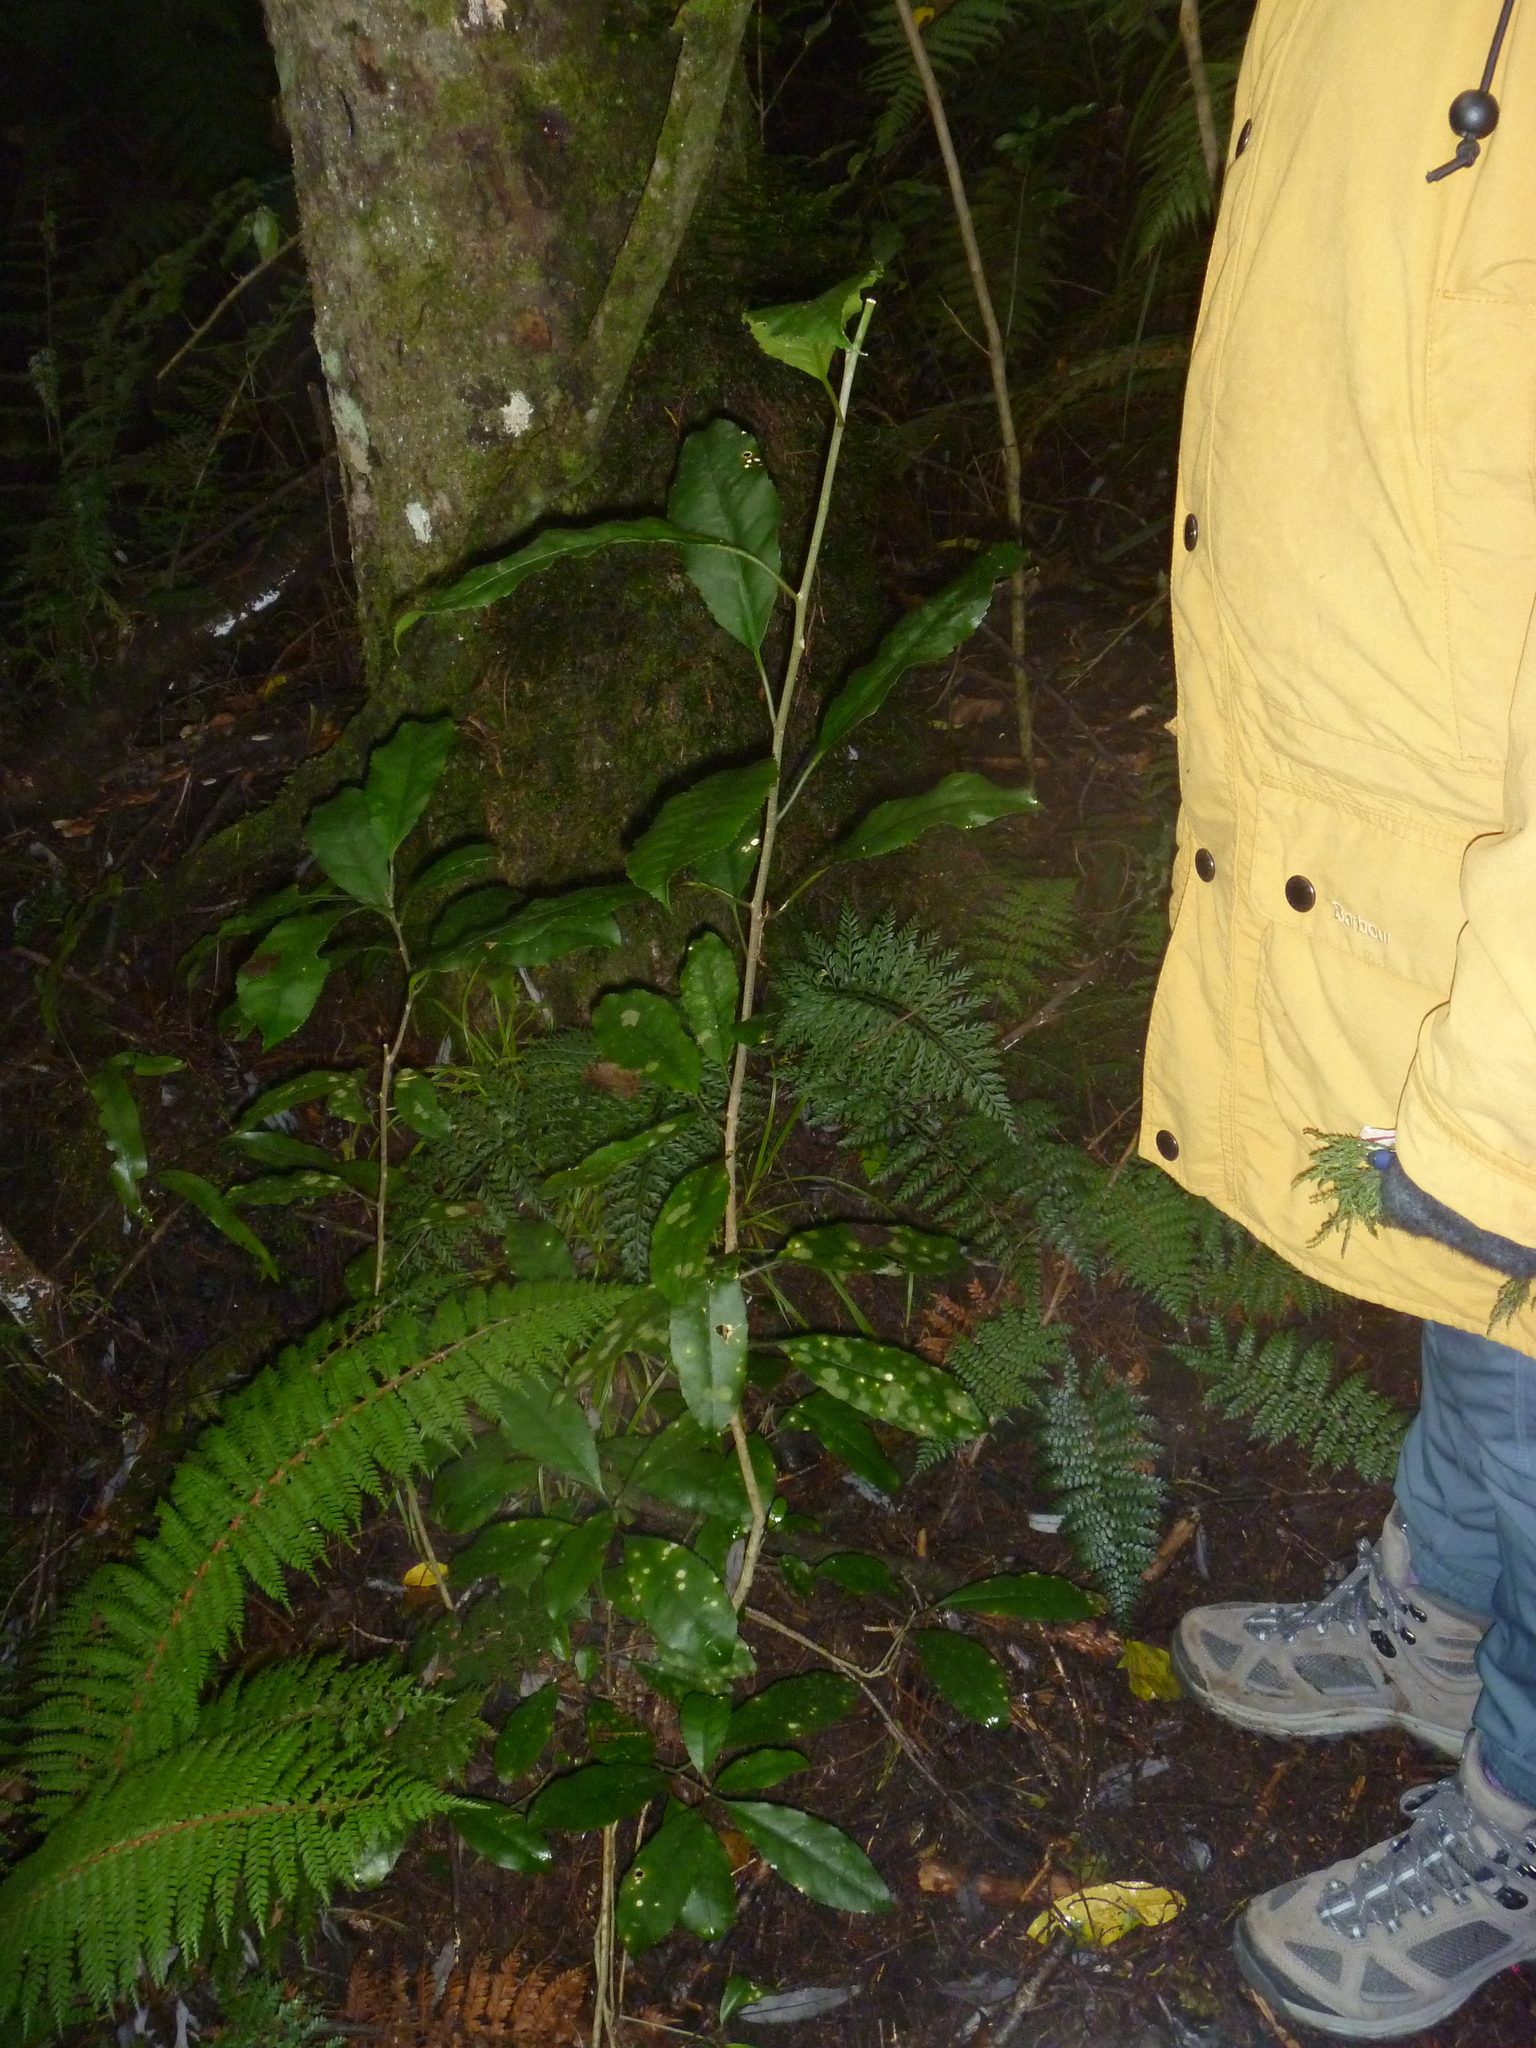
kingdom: Plantae
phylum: Tracheophyta
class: Magnoliopsida
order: Malpighiales
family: Violaceae
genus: Melicytus
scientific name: Melicytus ramiflorus
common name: Mahoe
